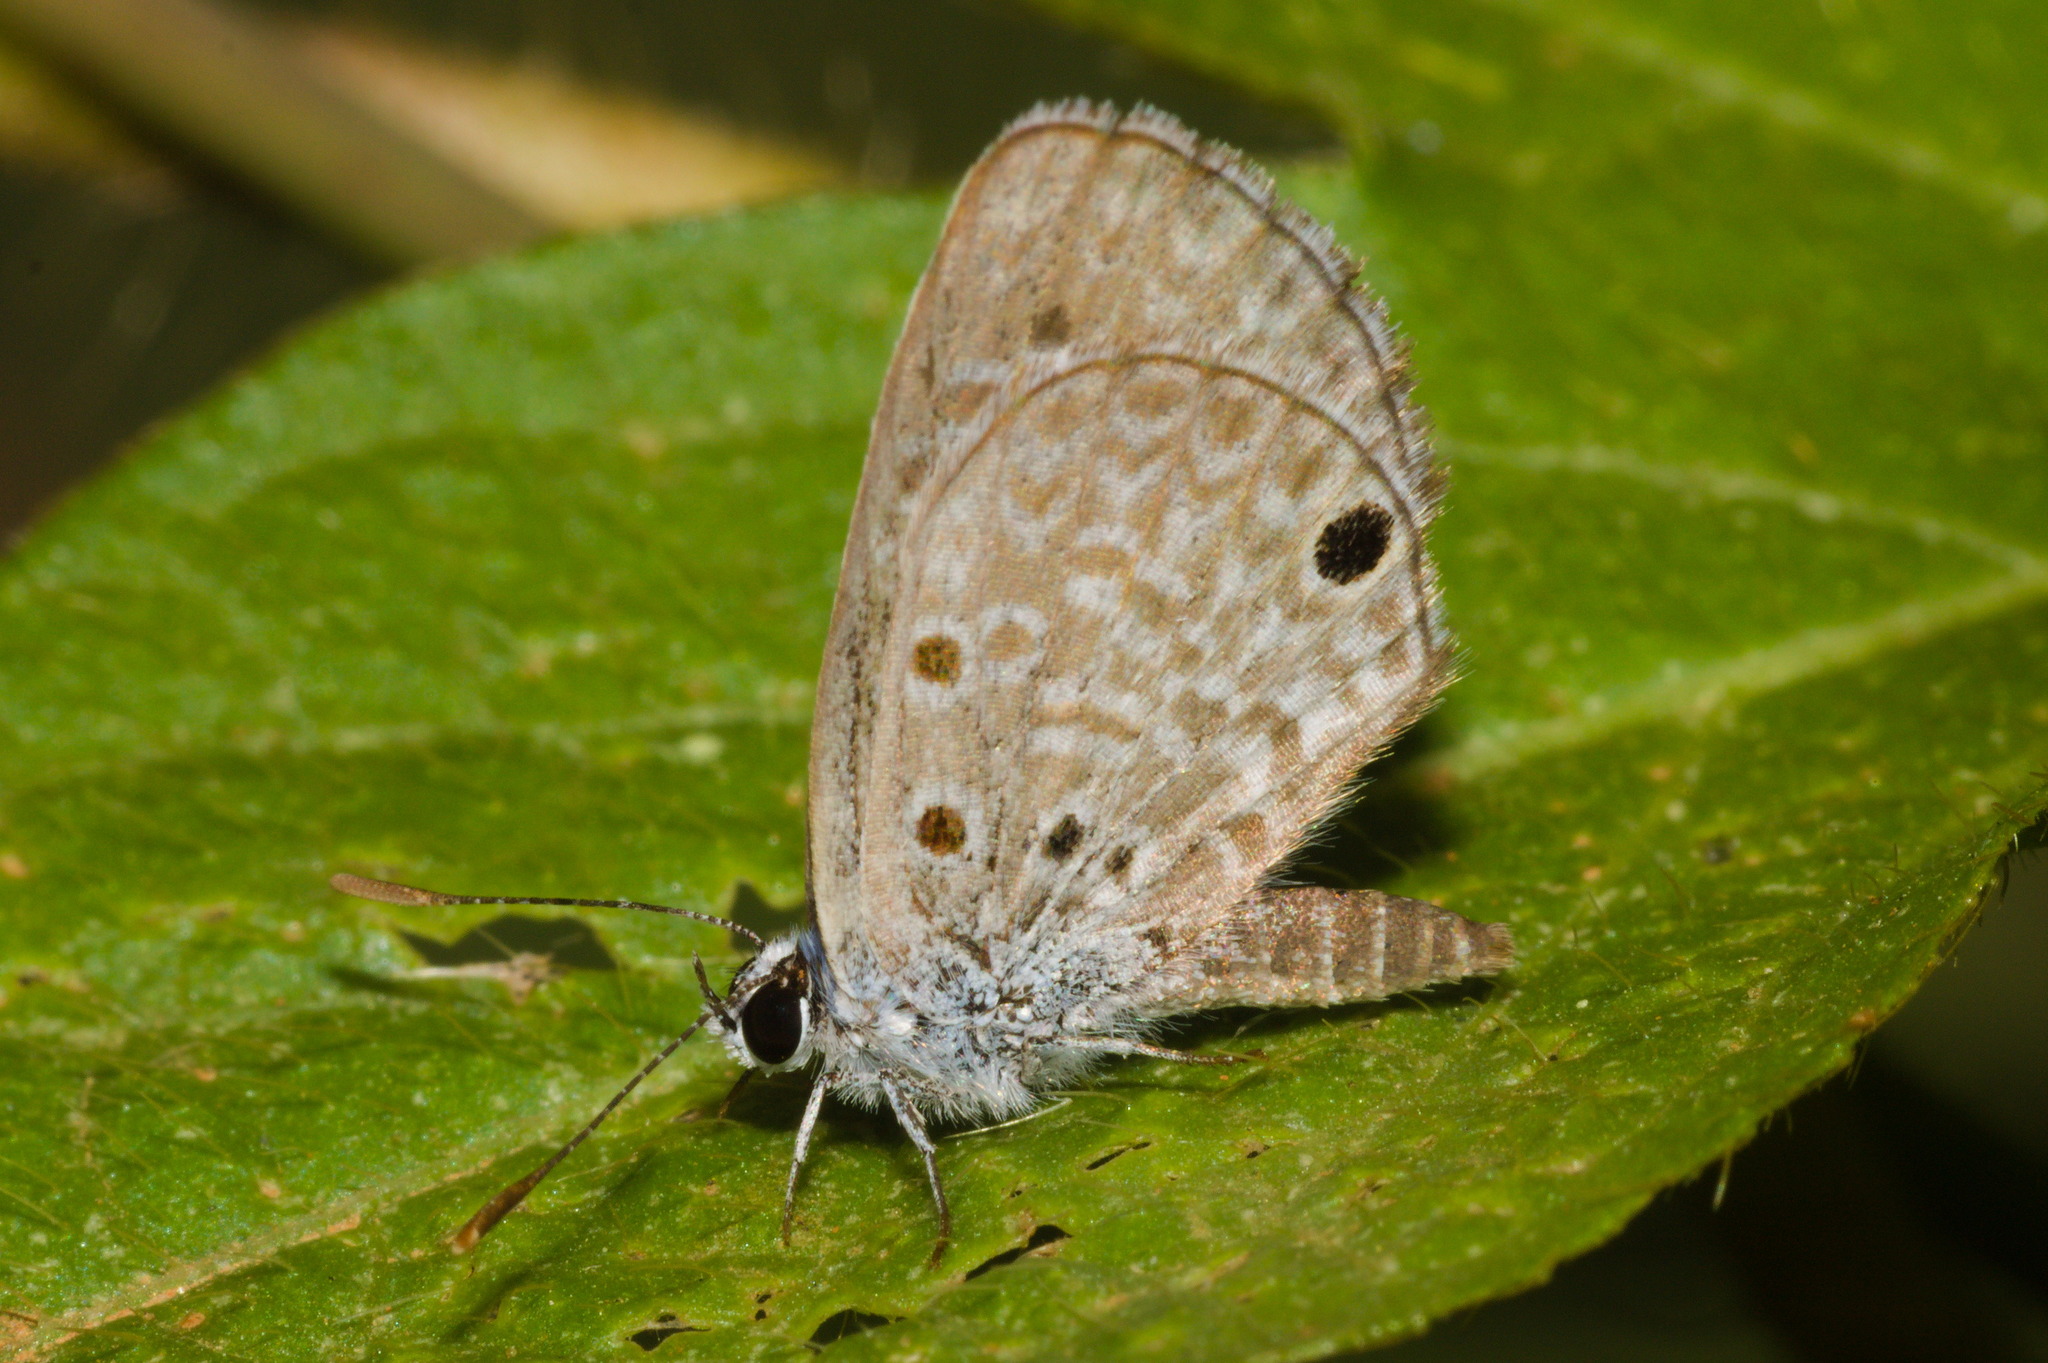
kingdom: Animalia
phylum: Arthropoda
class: Insecta
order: Lepidoptera
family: Lycaenidae
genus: Hemiargus
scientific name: Hemiargus hanno
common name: Common blue
